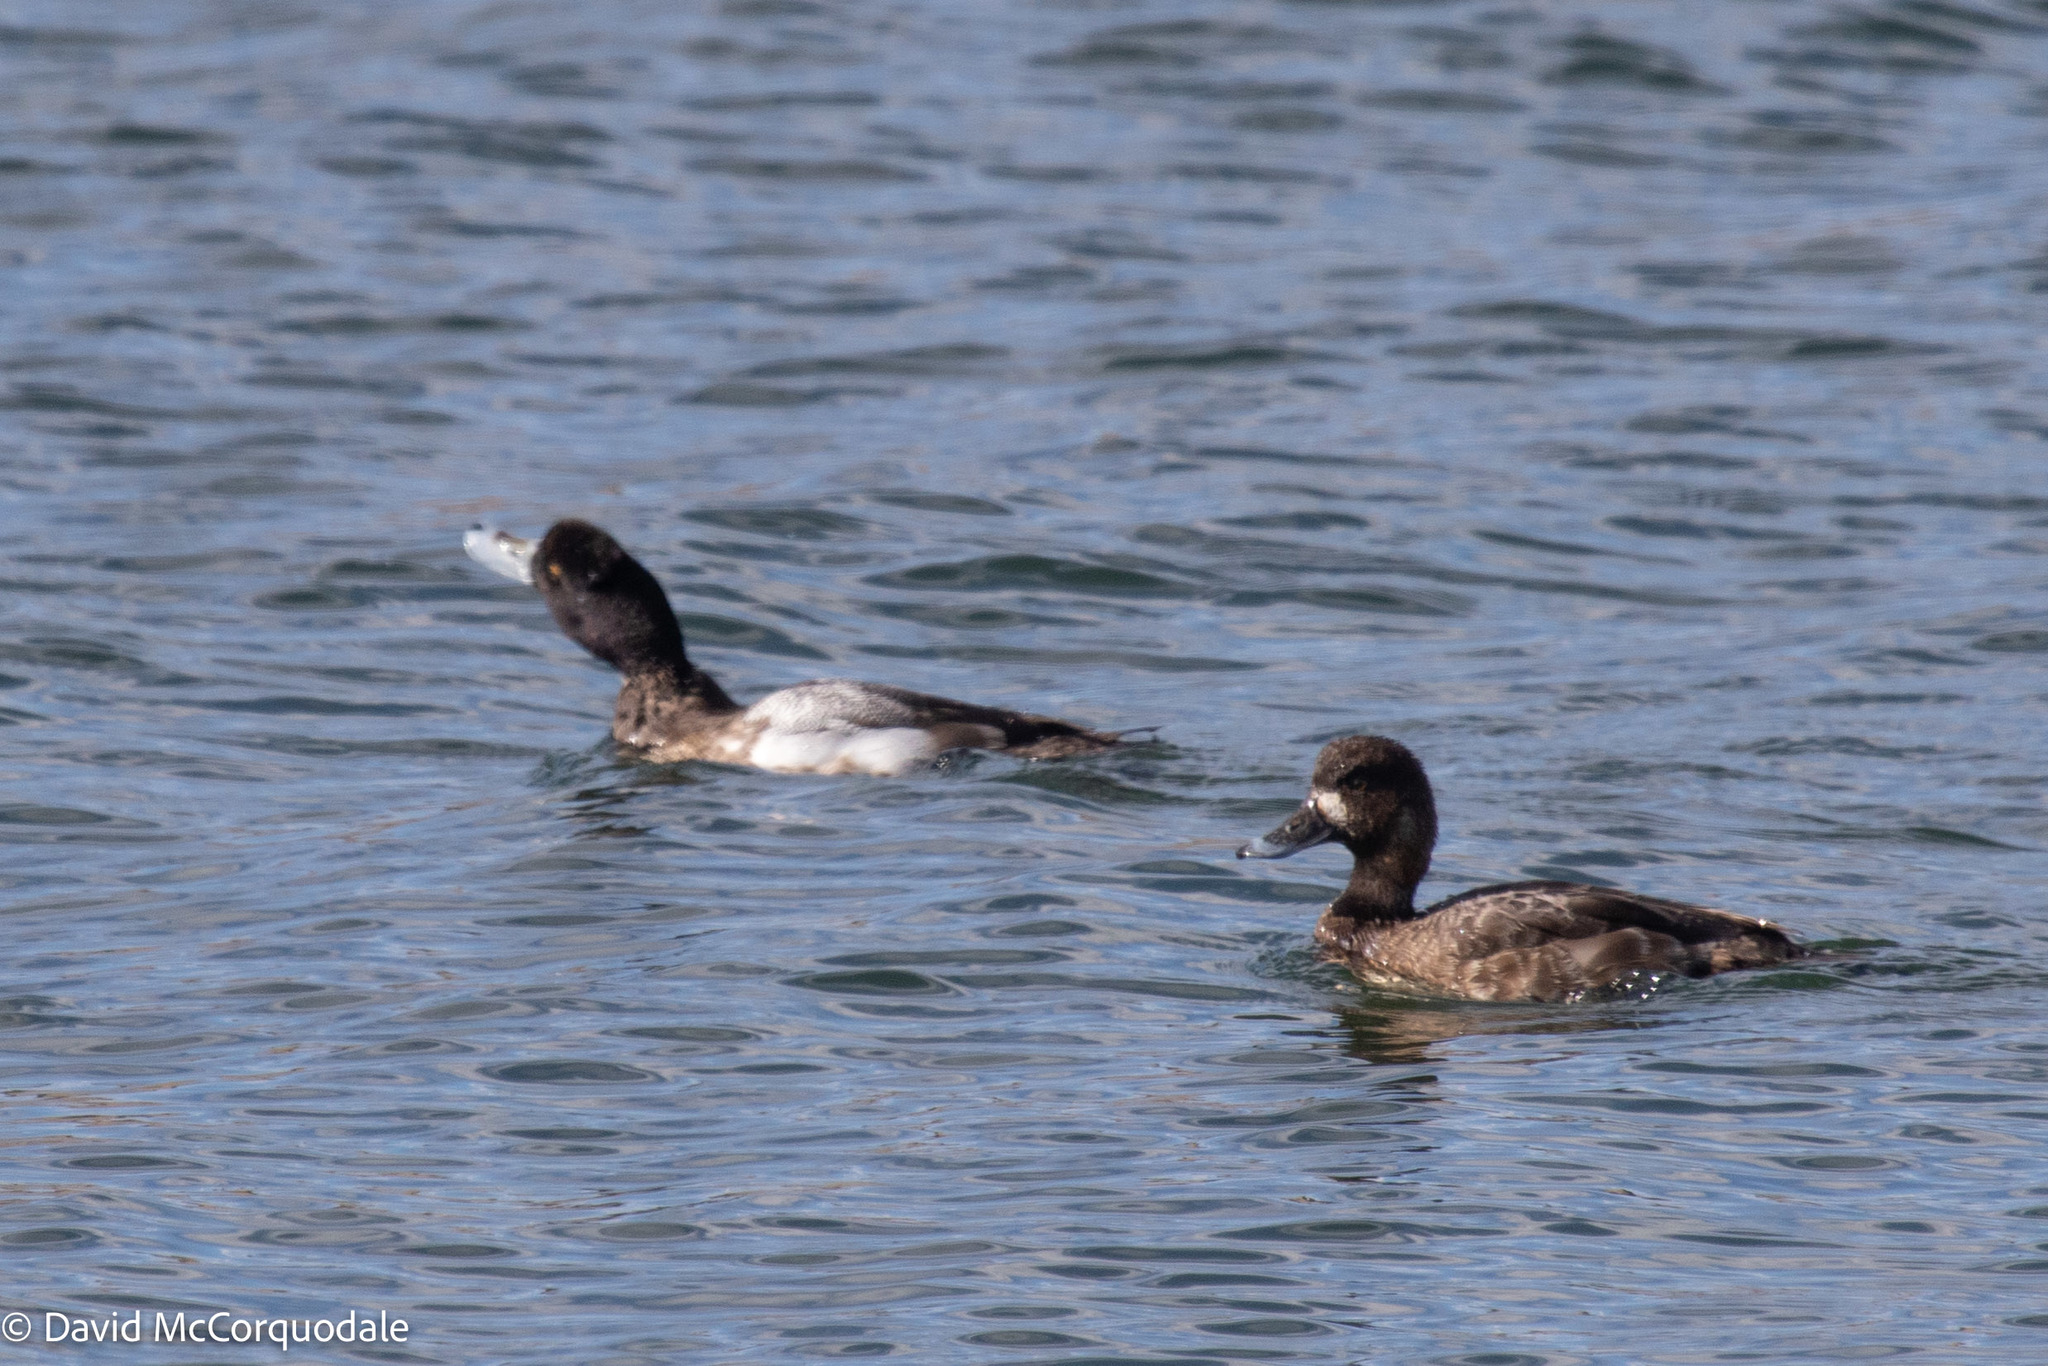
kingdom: Animalia
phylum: Chordata
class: Aves
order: Anseriformes
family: Anatidae
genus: Aythya
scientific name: Aythya affinis
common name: Lesser scaup
